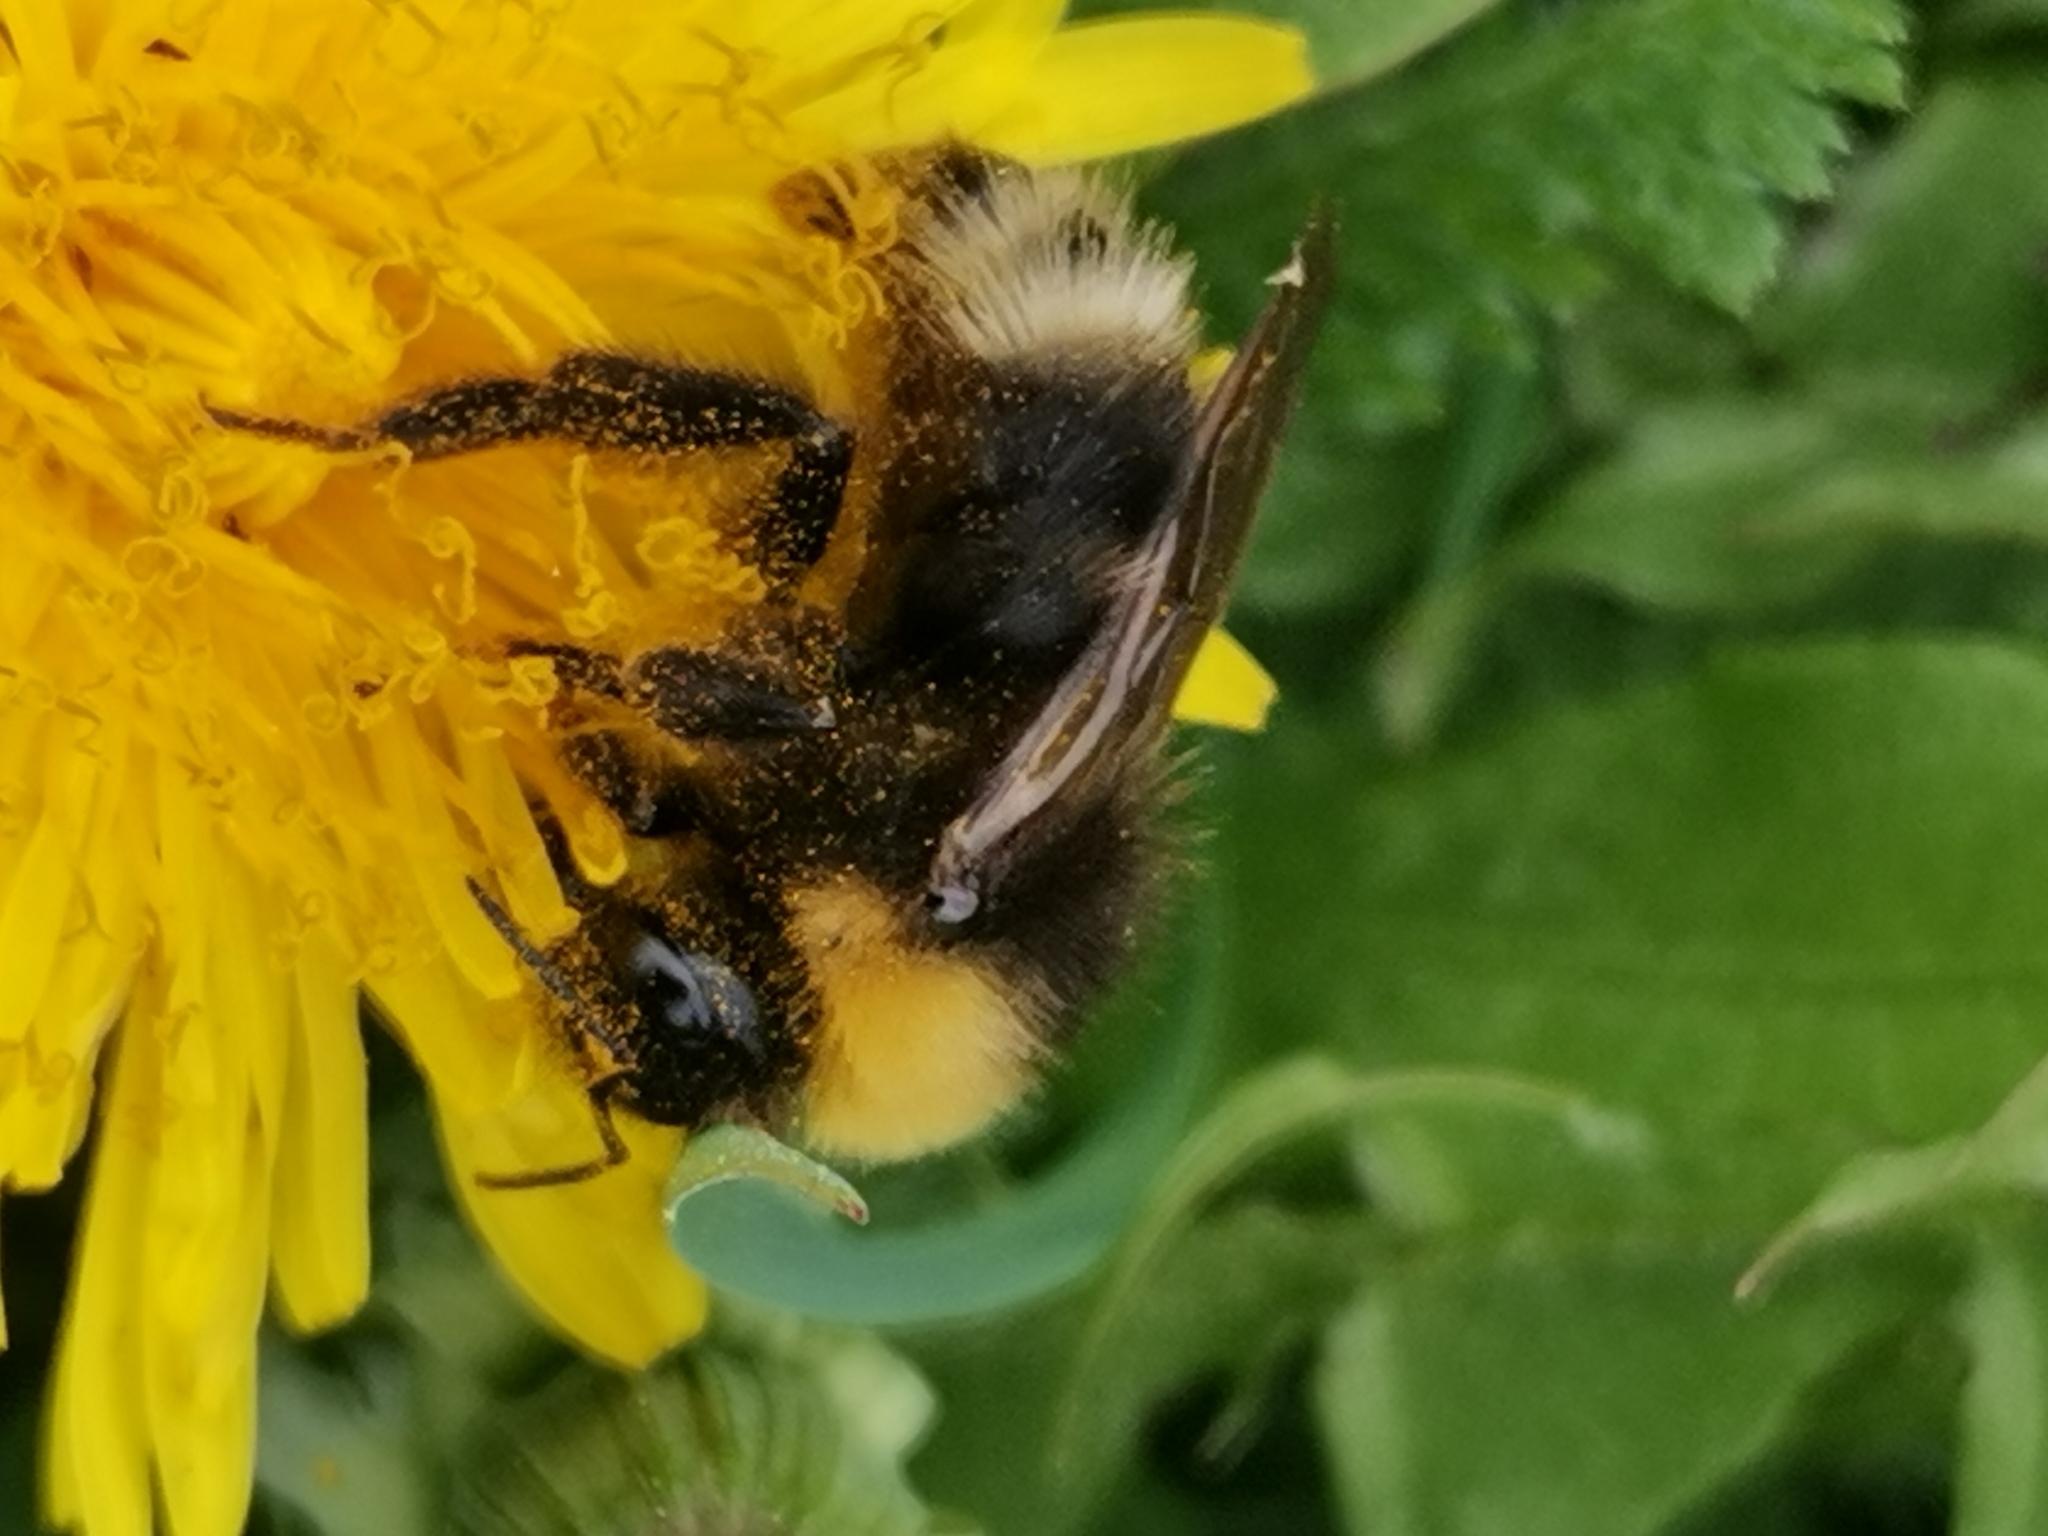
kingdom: Animalia
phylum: Arthropoda
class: Insecta
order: Hymenoptera
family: Apidae
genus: Bombus
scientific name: Bombus bohemicus
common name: Gypsy cuckoo bee
